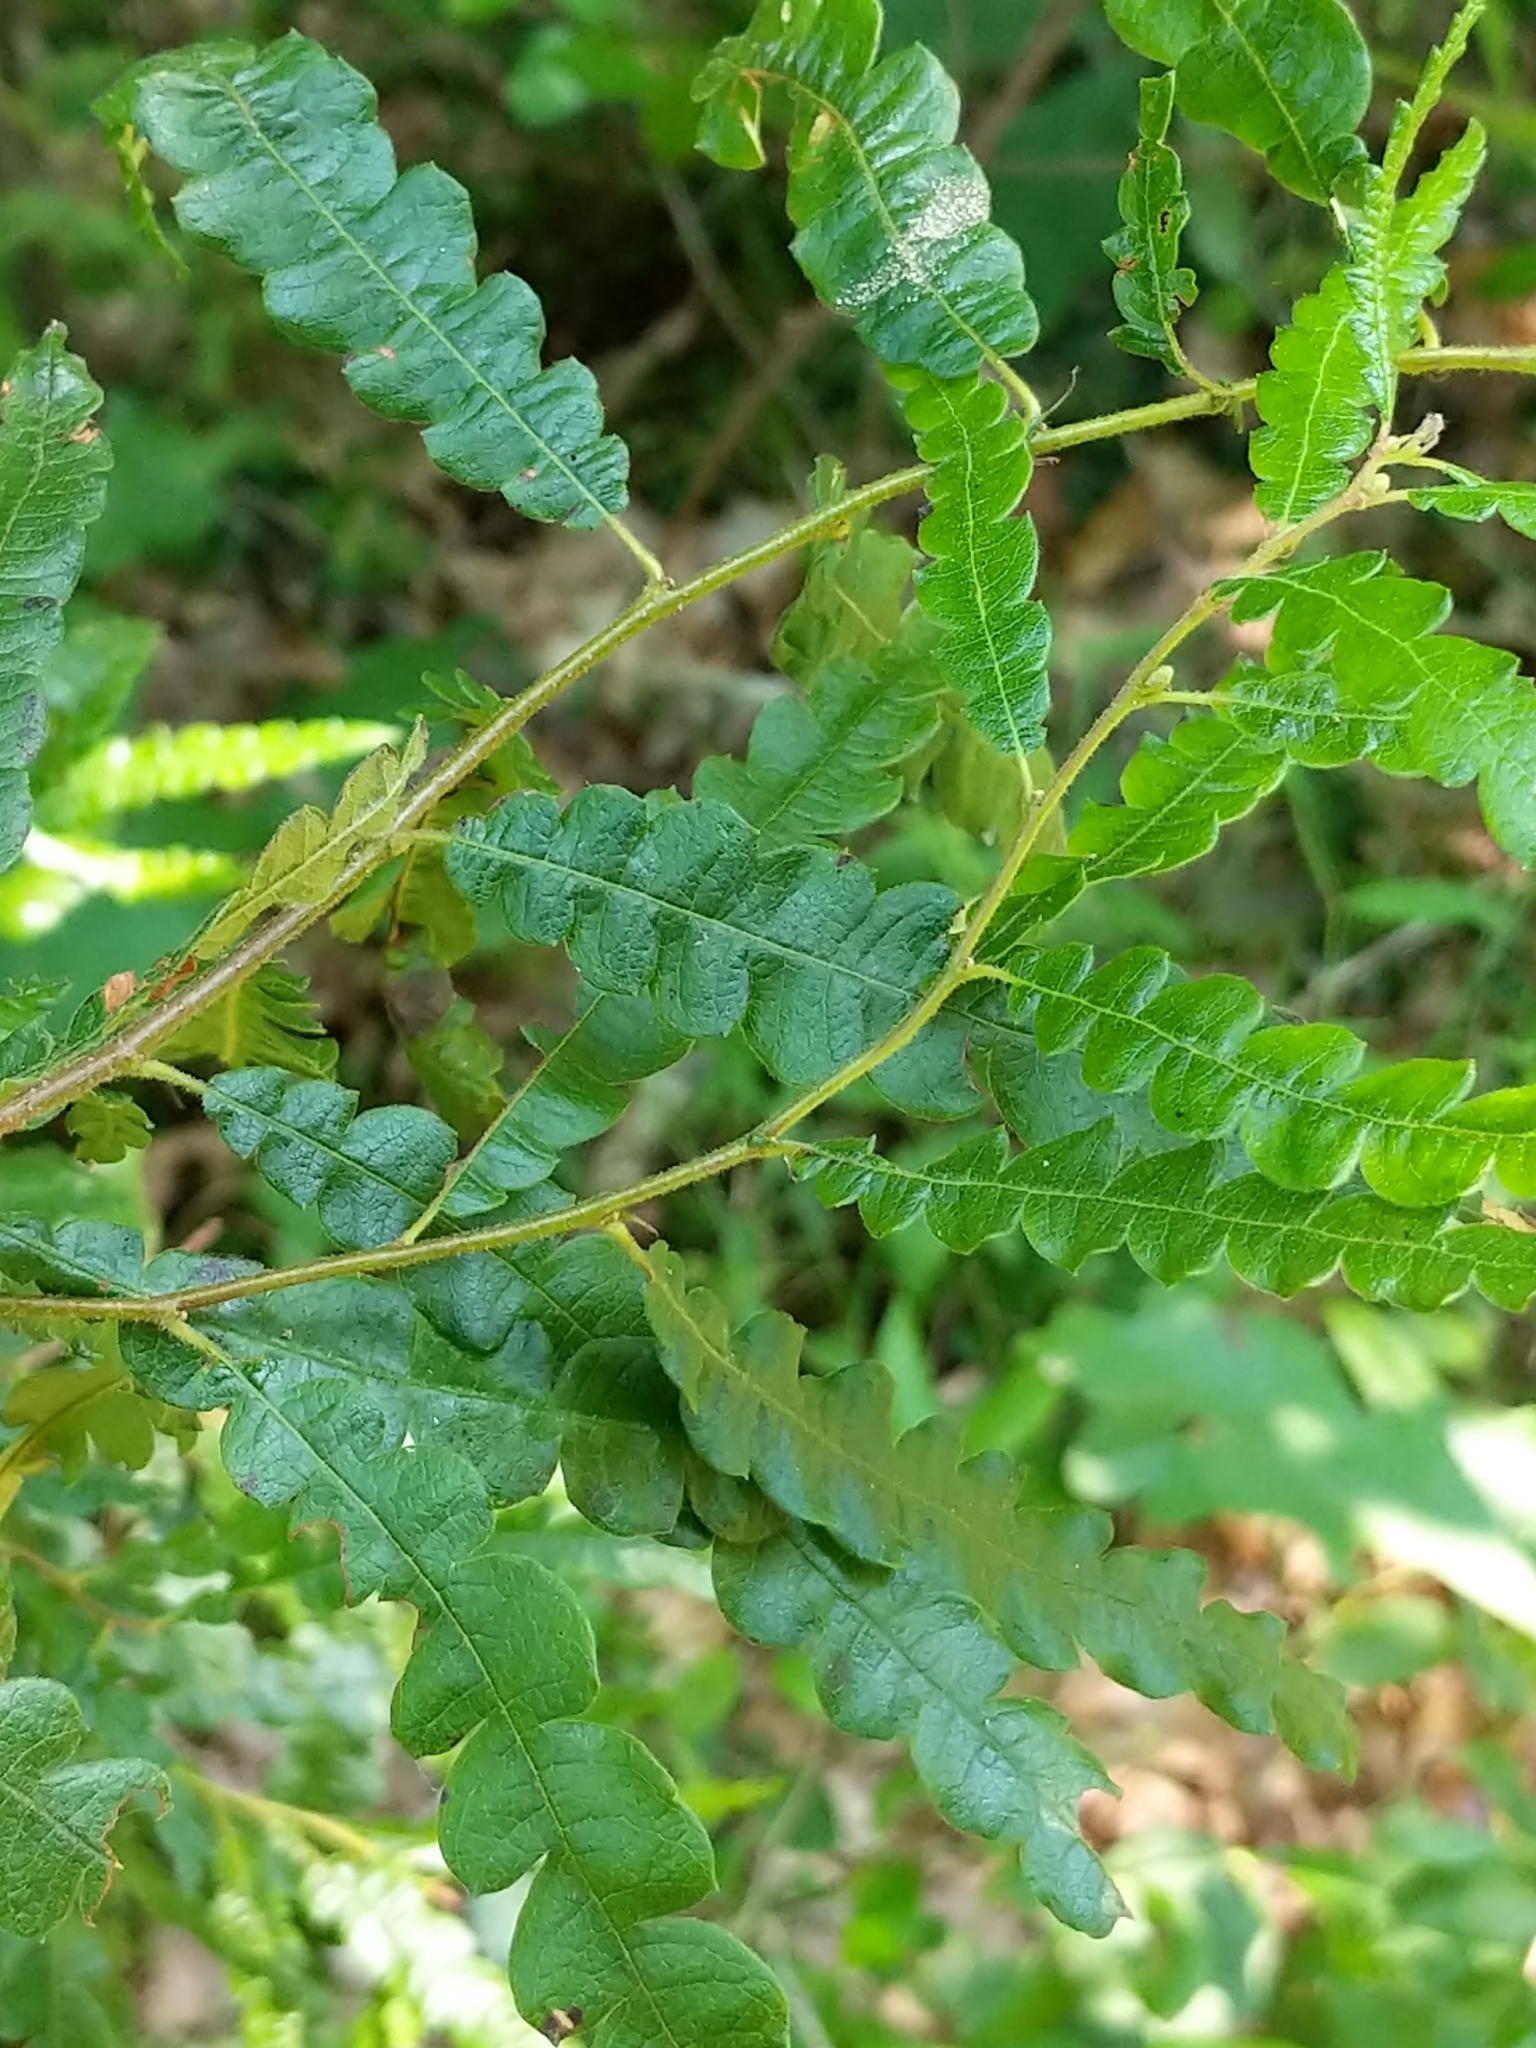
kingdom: Plantae
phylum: Tracheophyta
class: Magnoliopsida
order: Fagales
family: Myricaceae
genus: Comptonia
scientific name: Comptonia peregrina
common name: Sweet-fern
